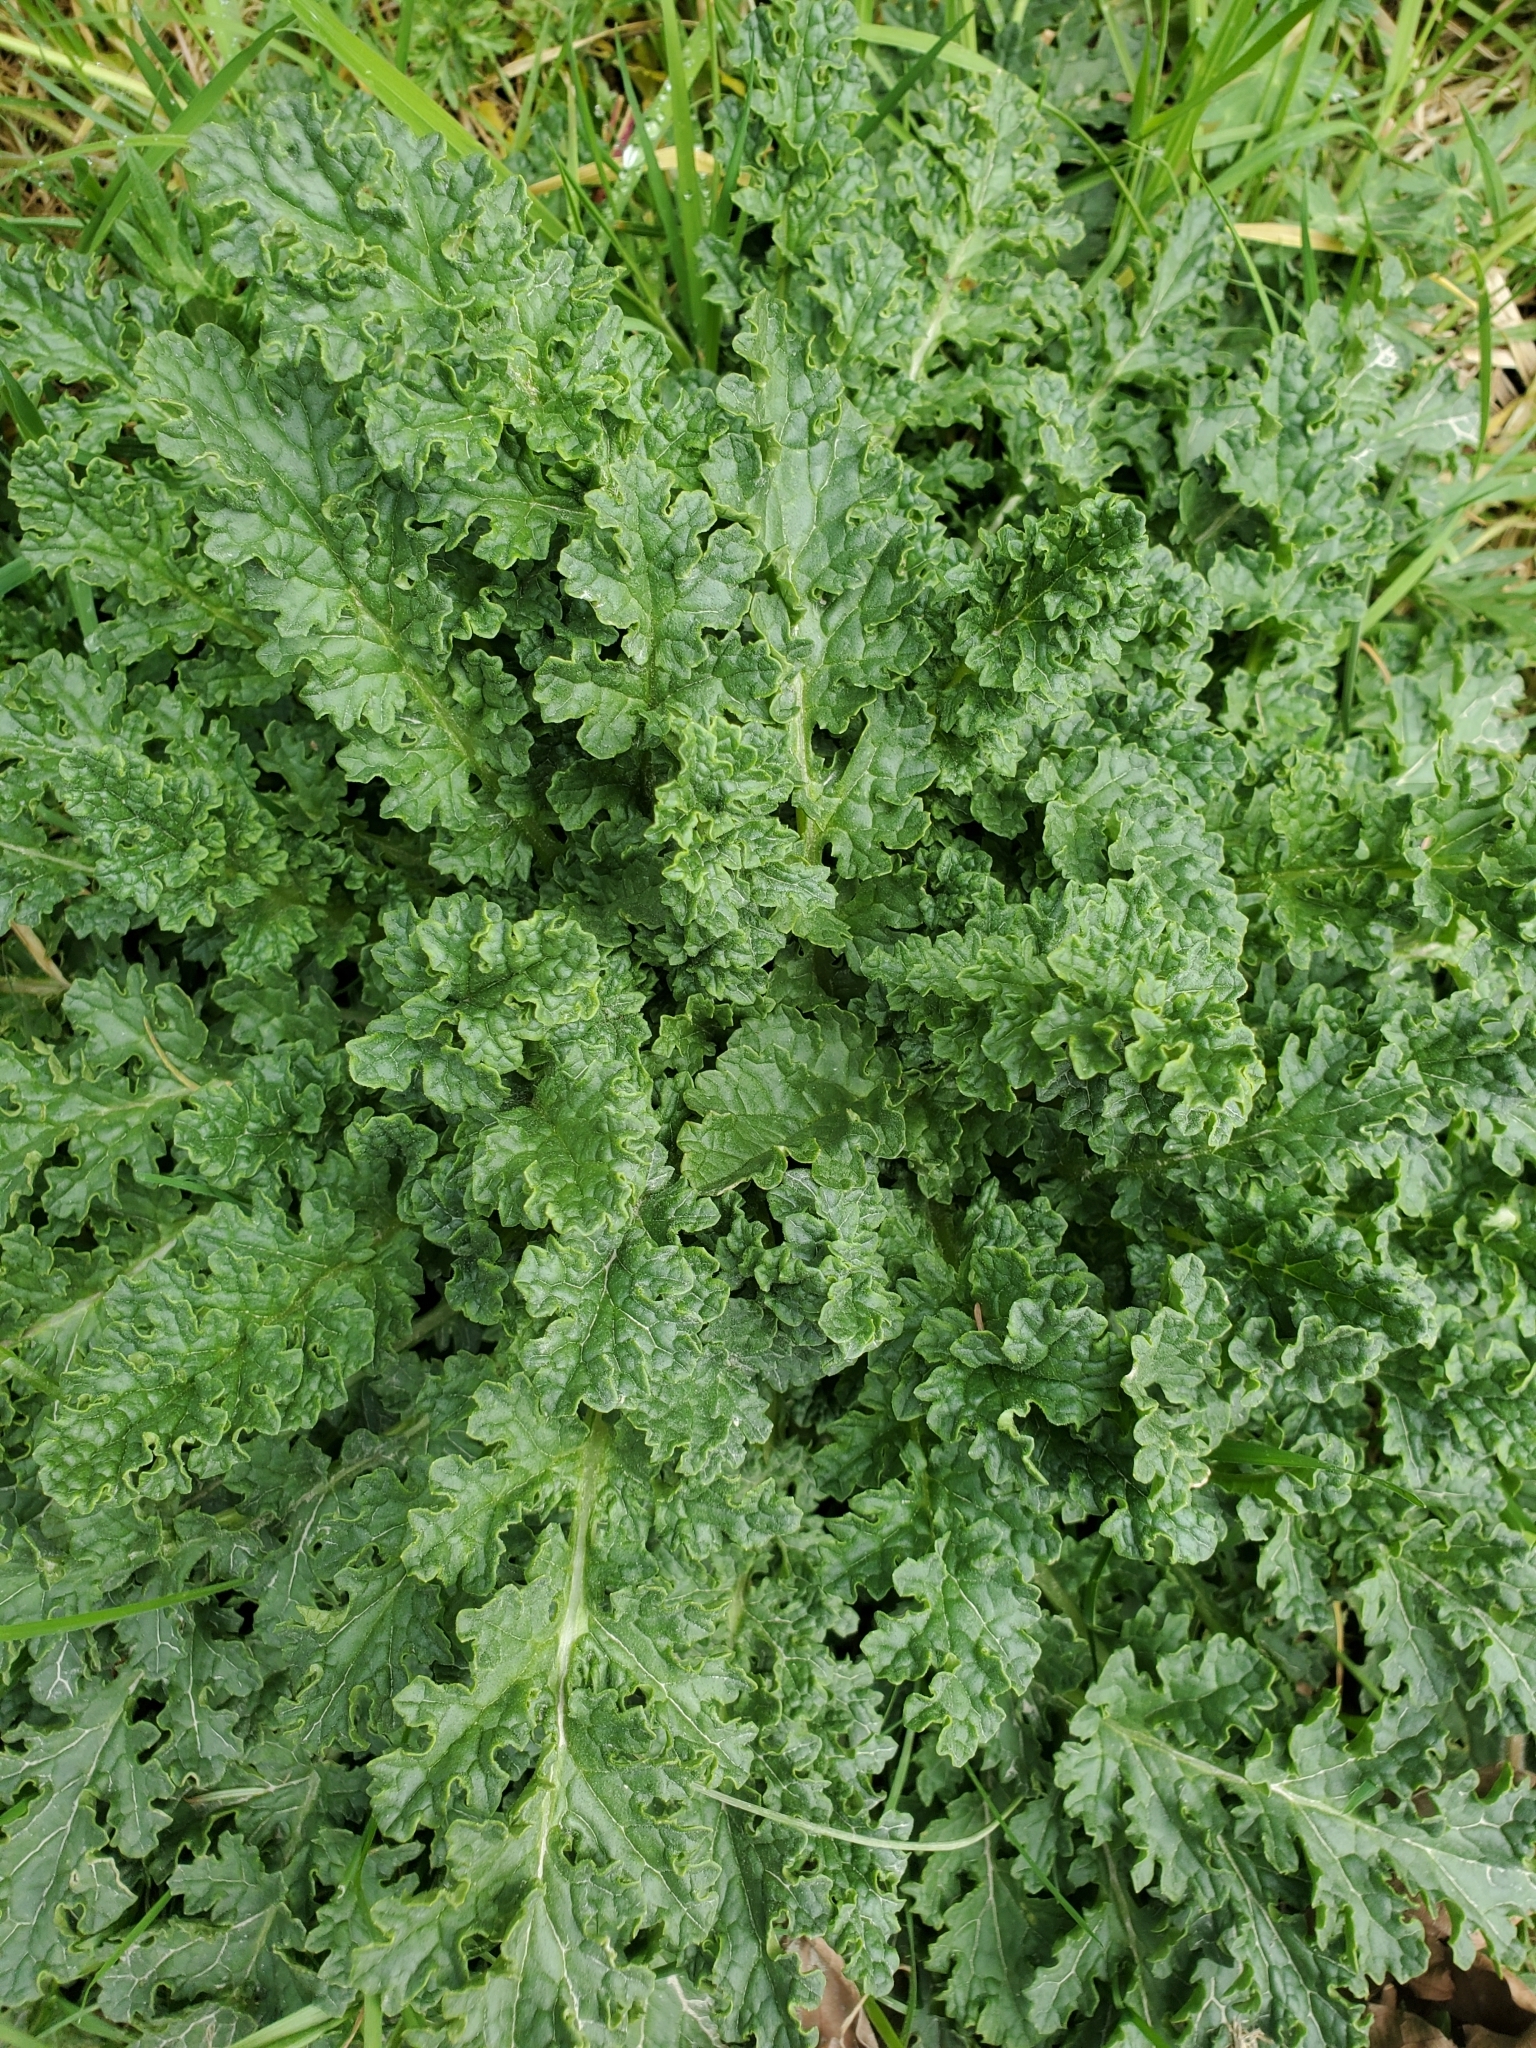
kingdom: Plantae
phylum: Tracheophyta
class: Magnoliopsida
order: Asterales
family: Asteraceae
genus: Jacobaea
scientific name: Jacobaea vulgaris
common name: Stinking willie
